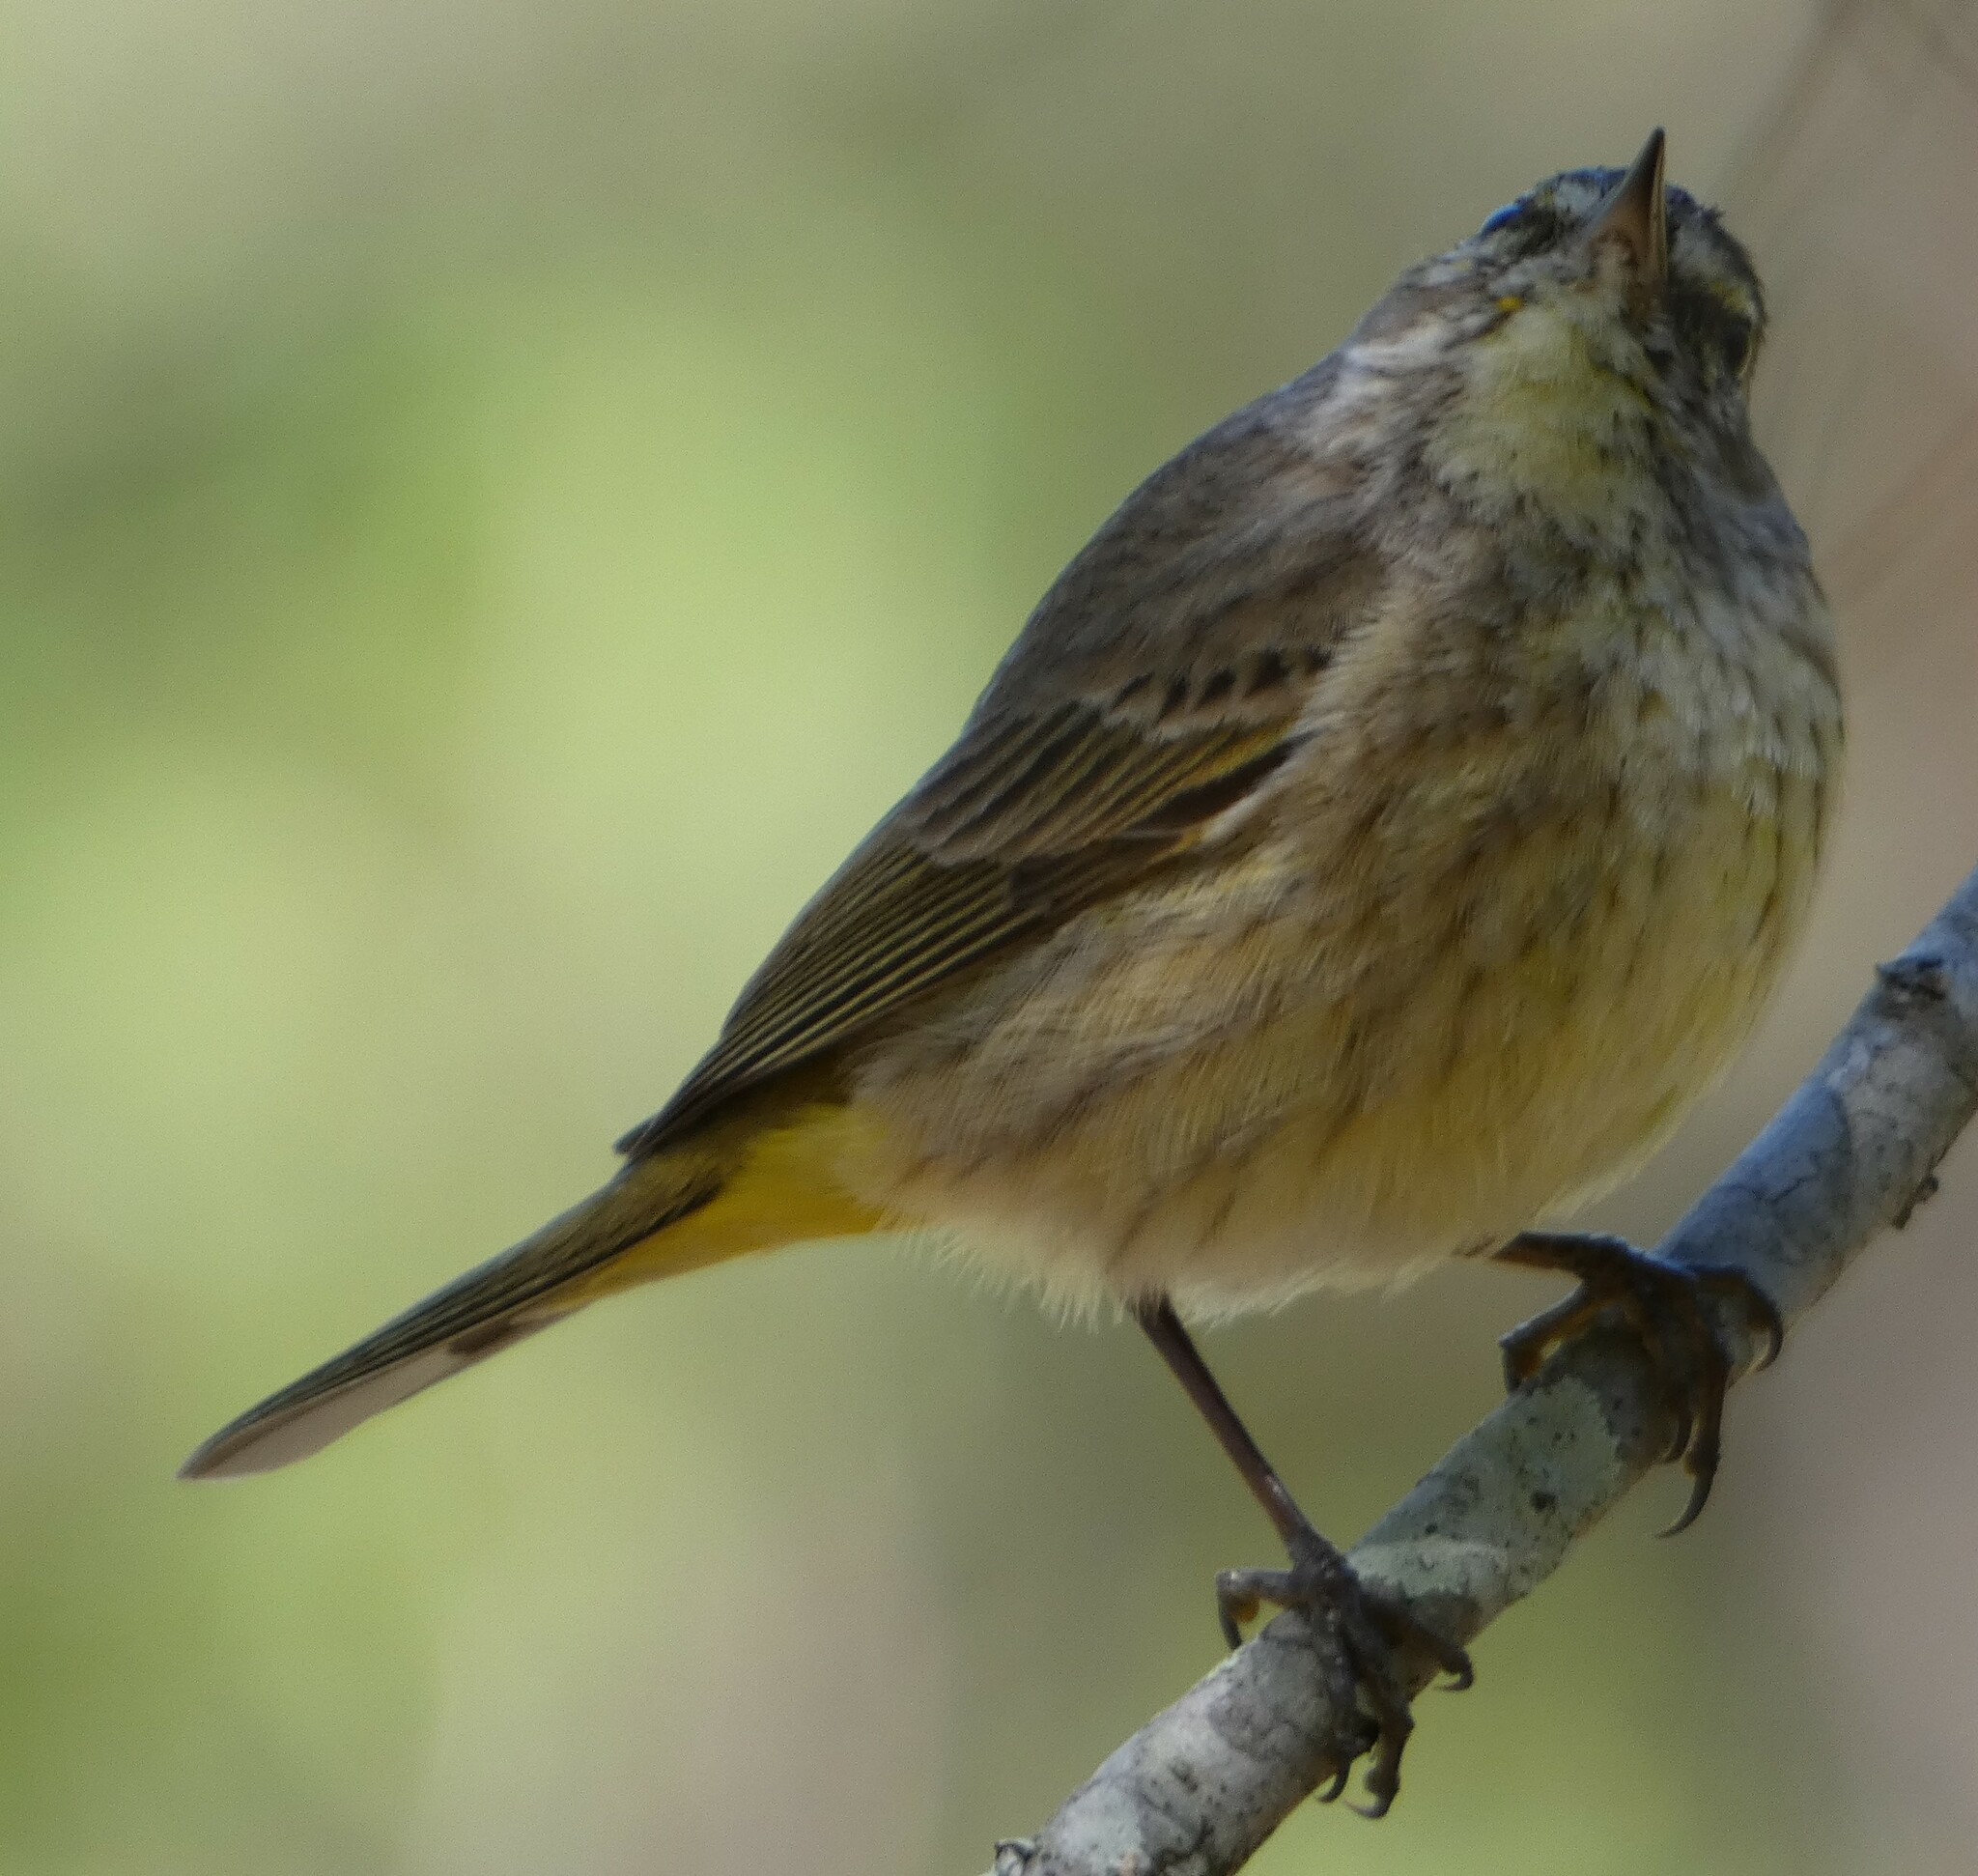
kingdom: Animalia
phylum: Chordata
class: Aves
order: Passeriformes
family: Parulidae
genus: Setophaga
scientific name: Setophaga palmarum
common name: Palm warbler
